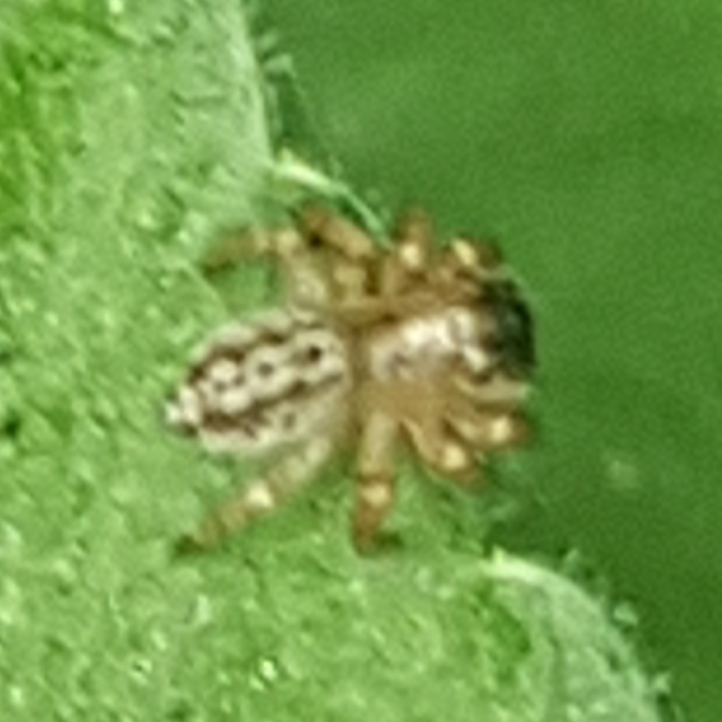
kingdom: Animalia
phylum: Arthropoda
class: Arachnida
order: Araneae
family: Salticidae
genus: Saitis
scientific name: Saitis barbipes
